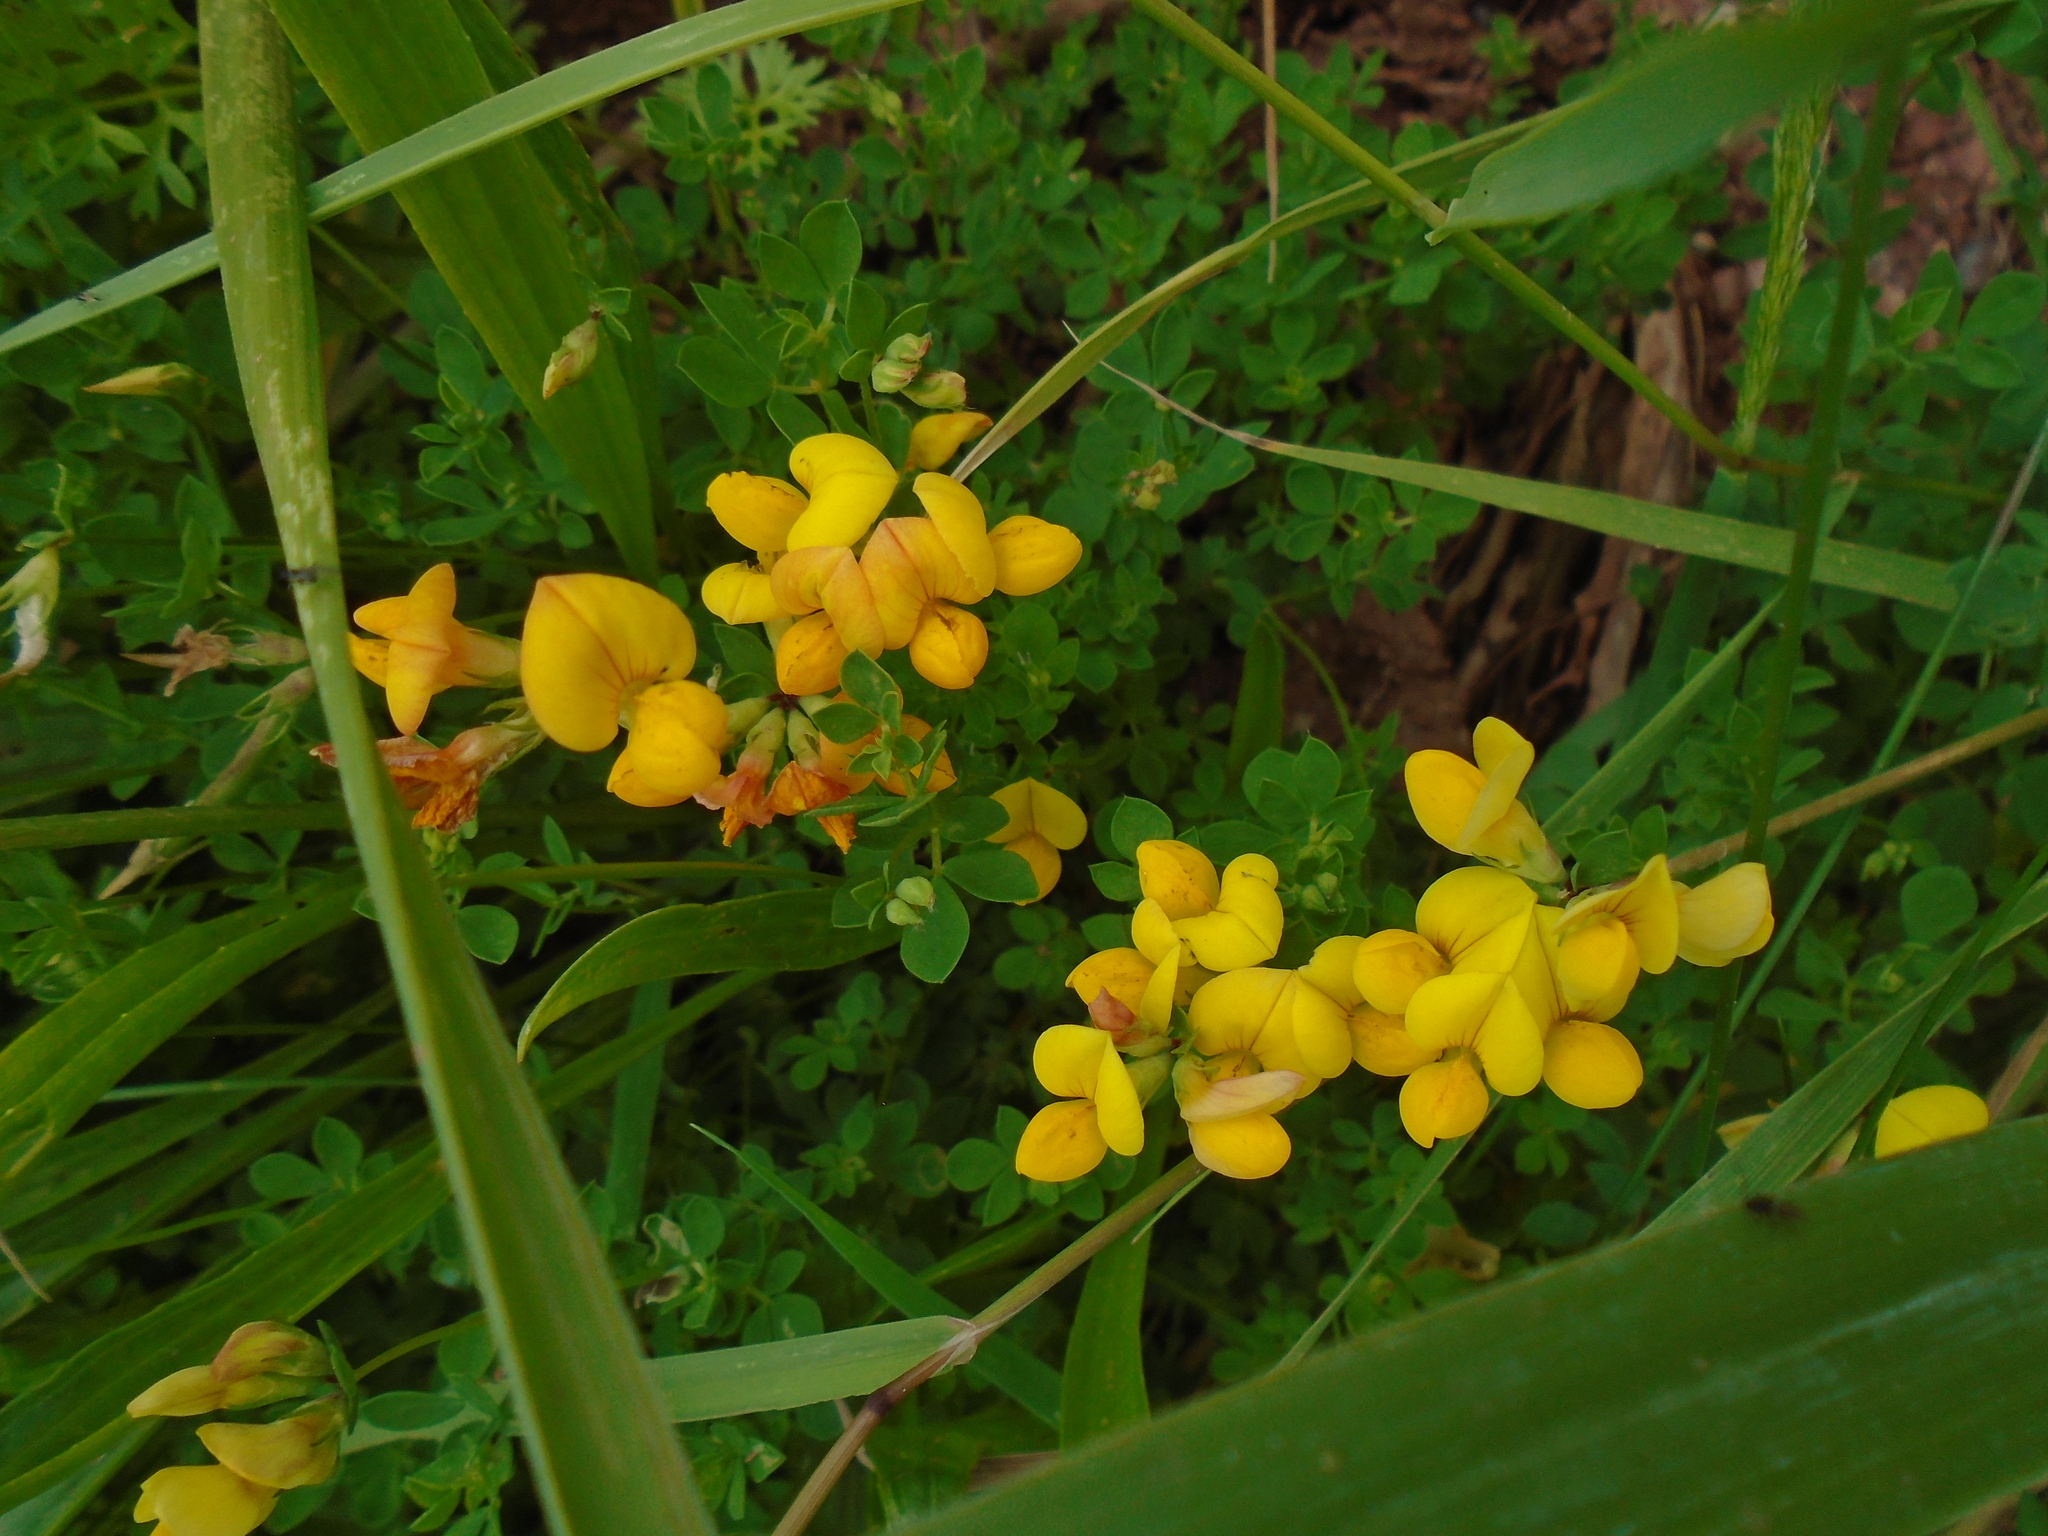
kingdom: Plantae
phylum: Tracheophyta
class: Magnoliopsida
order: Fabales
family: Fabaceae
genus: Lotus
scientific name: Lotus corniculatus
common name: Common bird's-foot-trefoil
